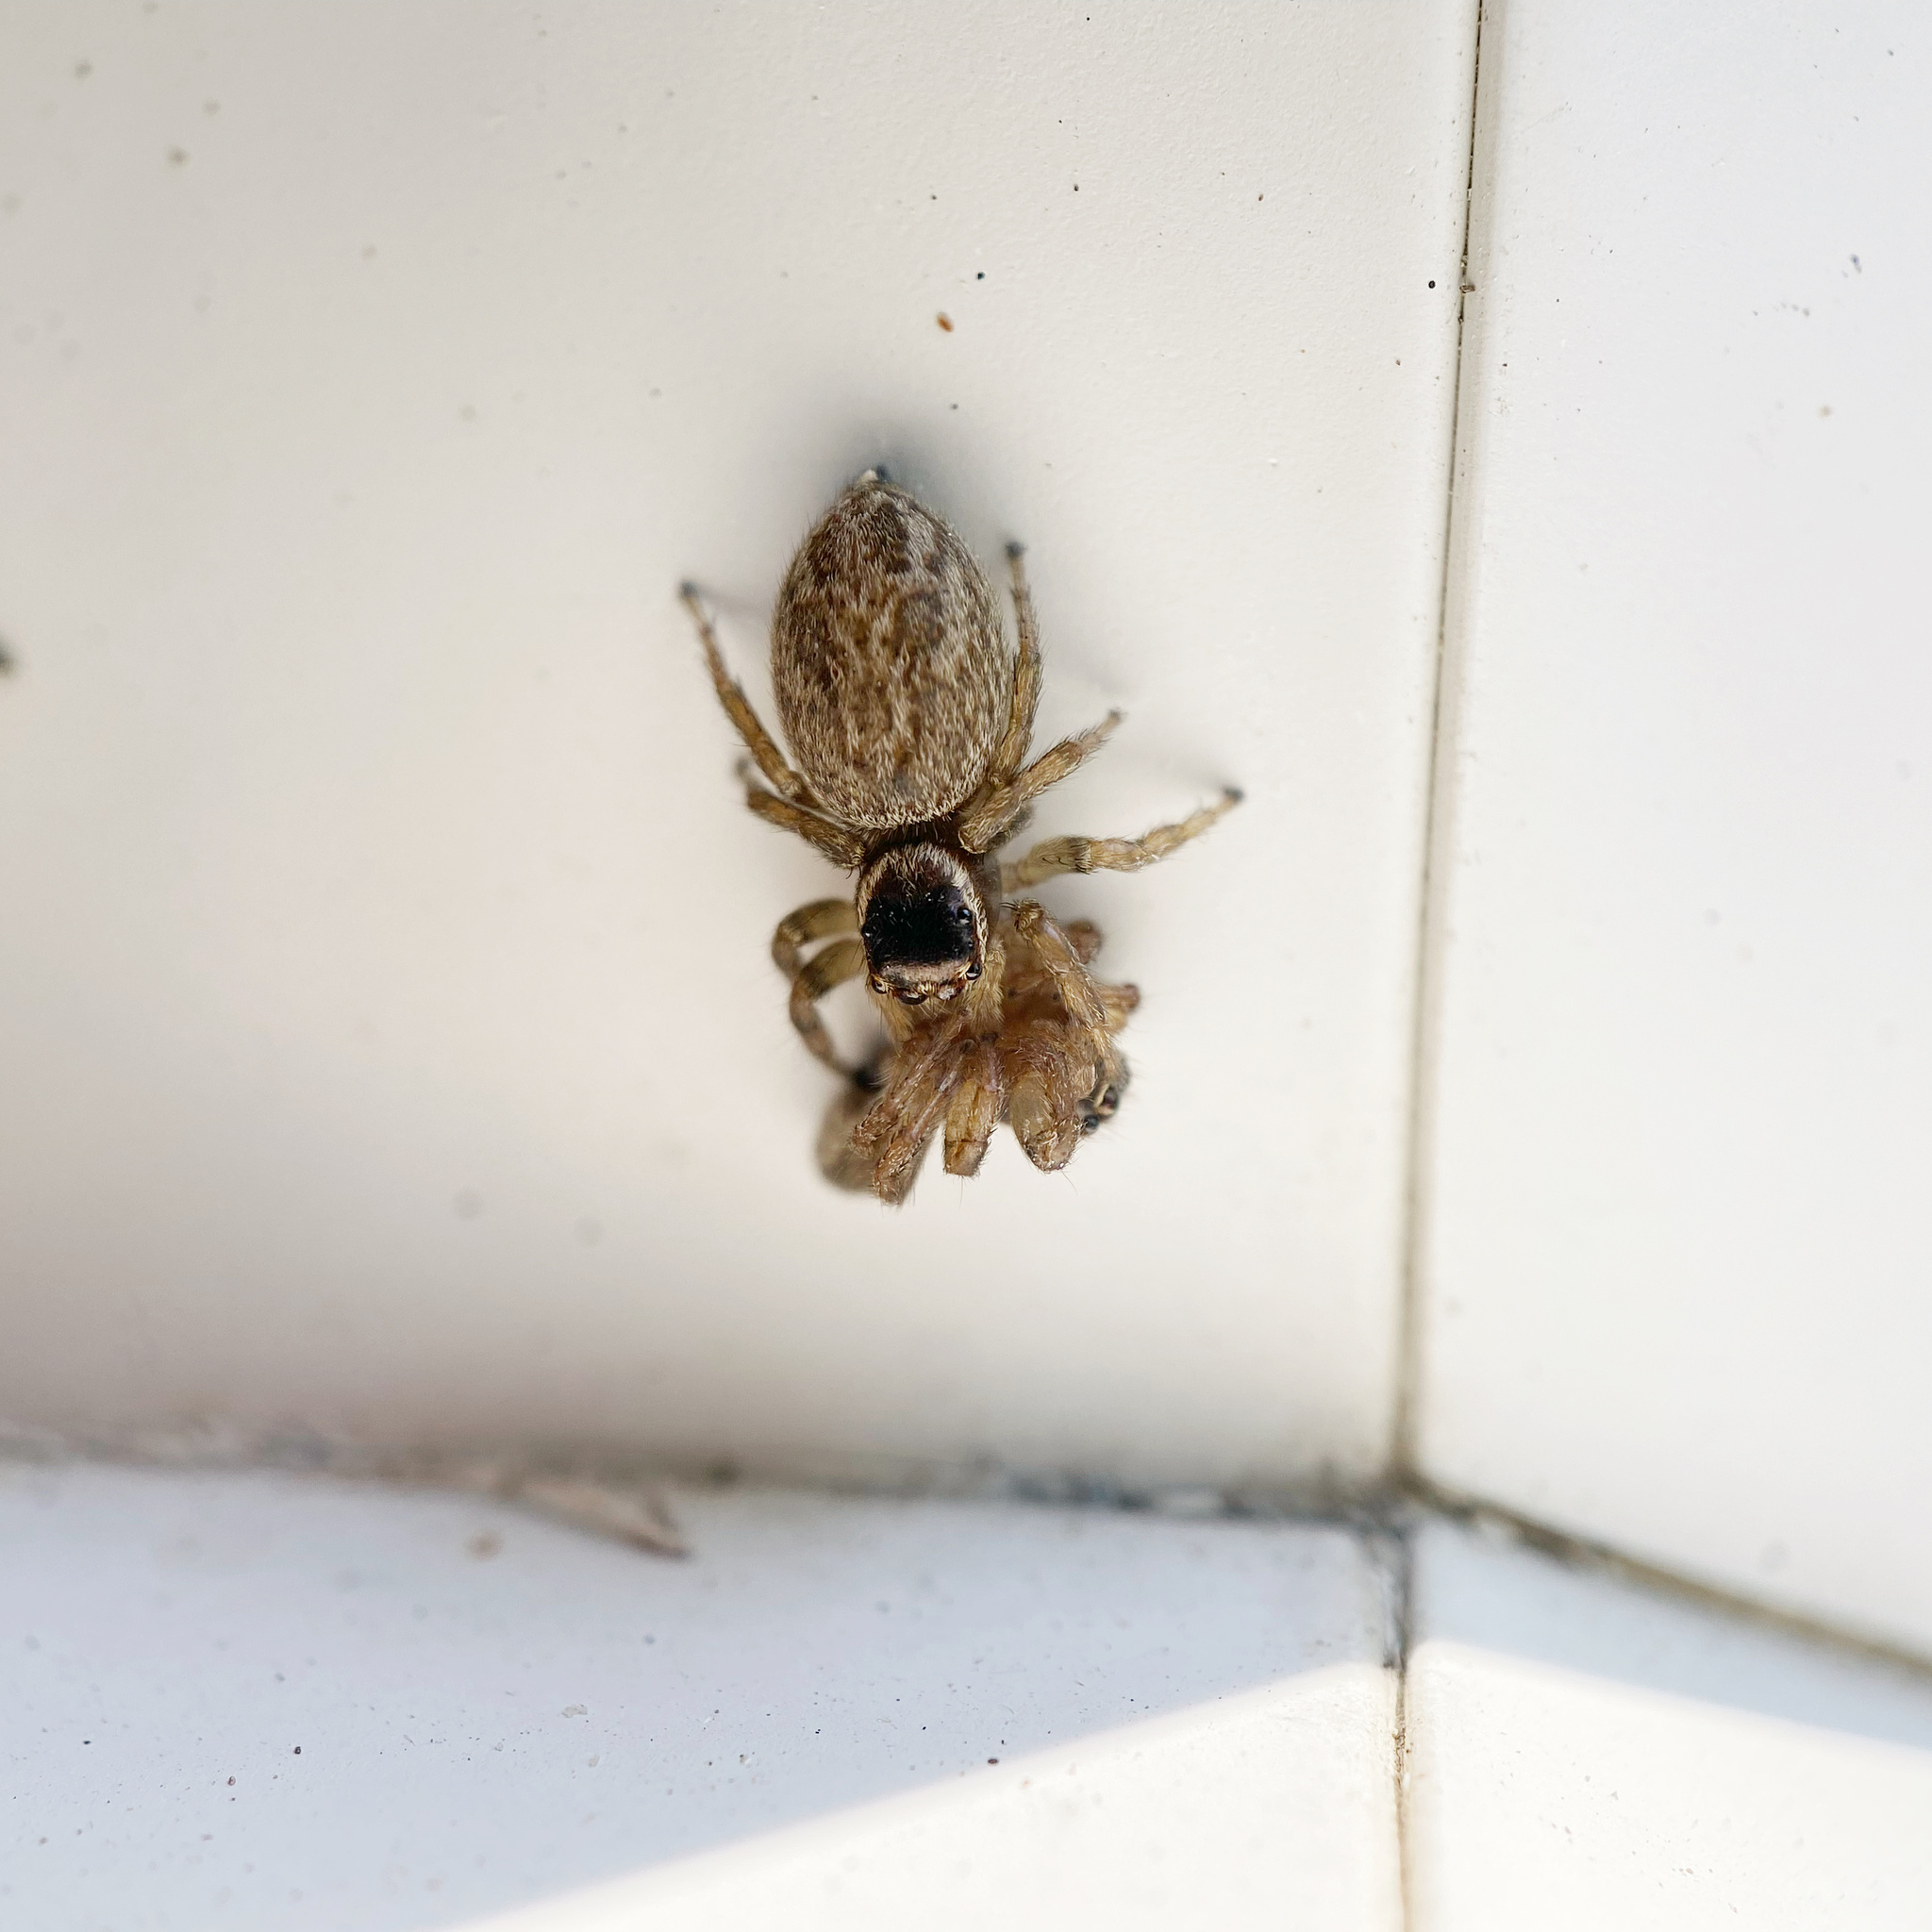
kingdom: Animalia
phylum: Arthropoda
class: Arachnida
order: Araneae
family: Salticidae
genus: Maratus
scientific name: Maratus griseus
